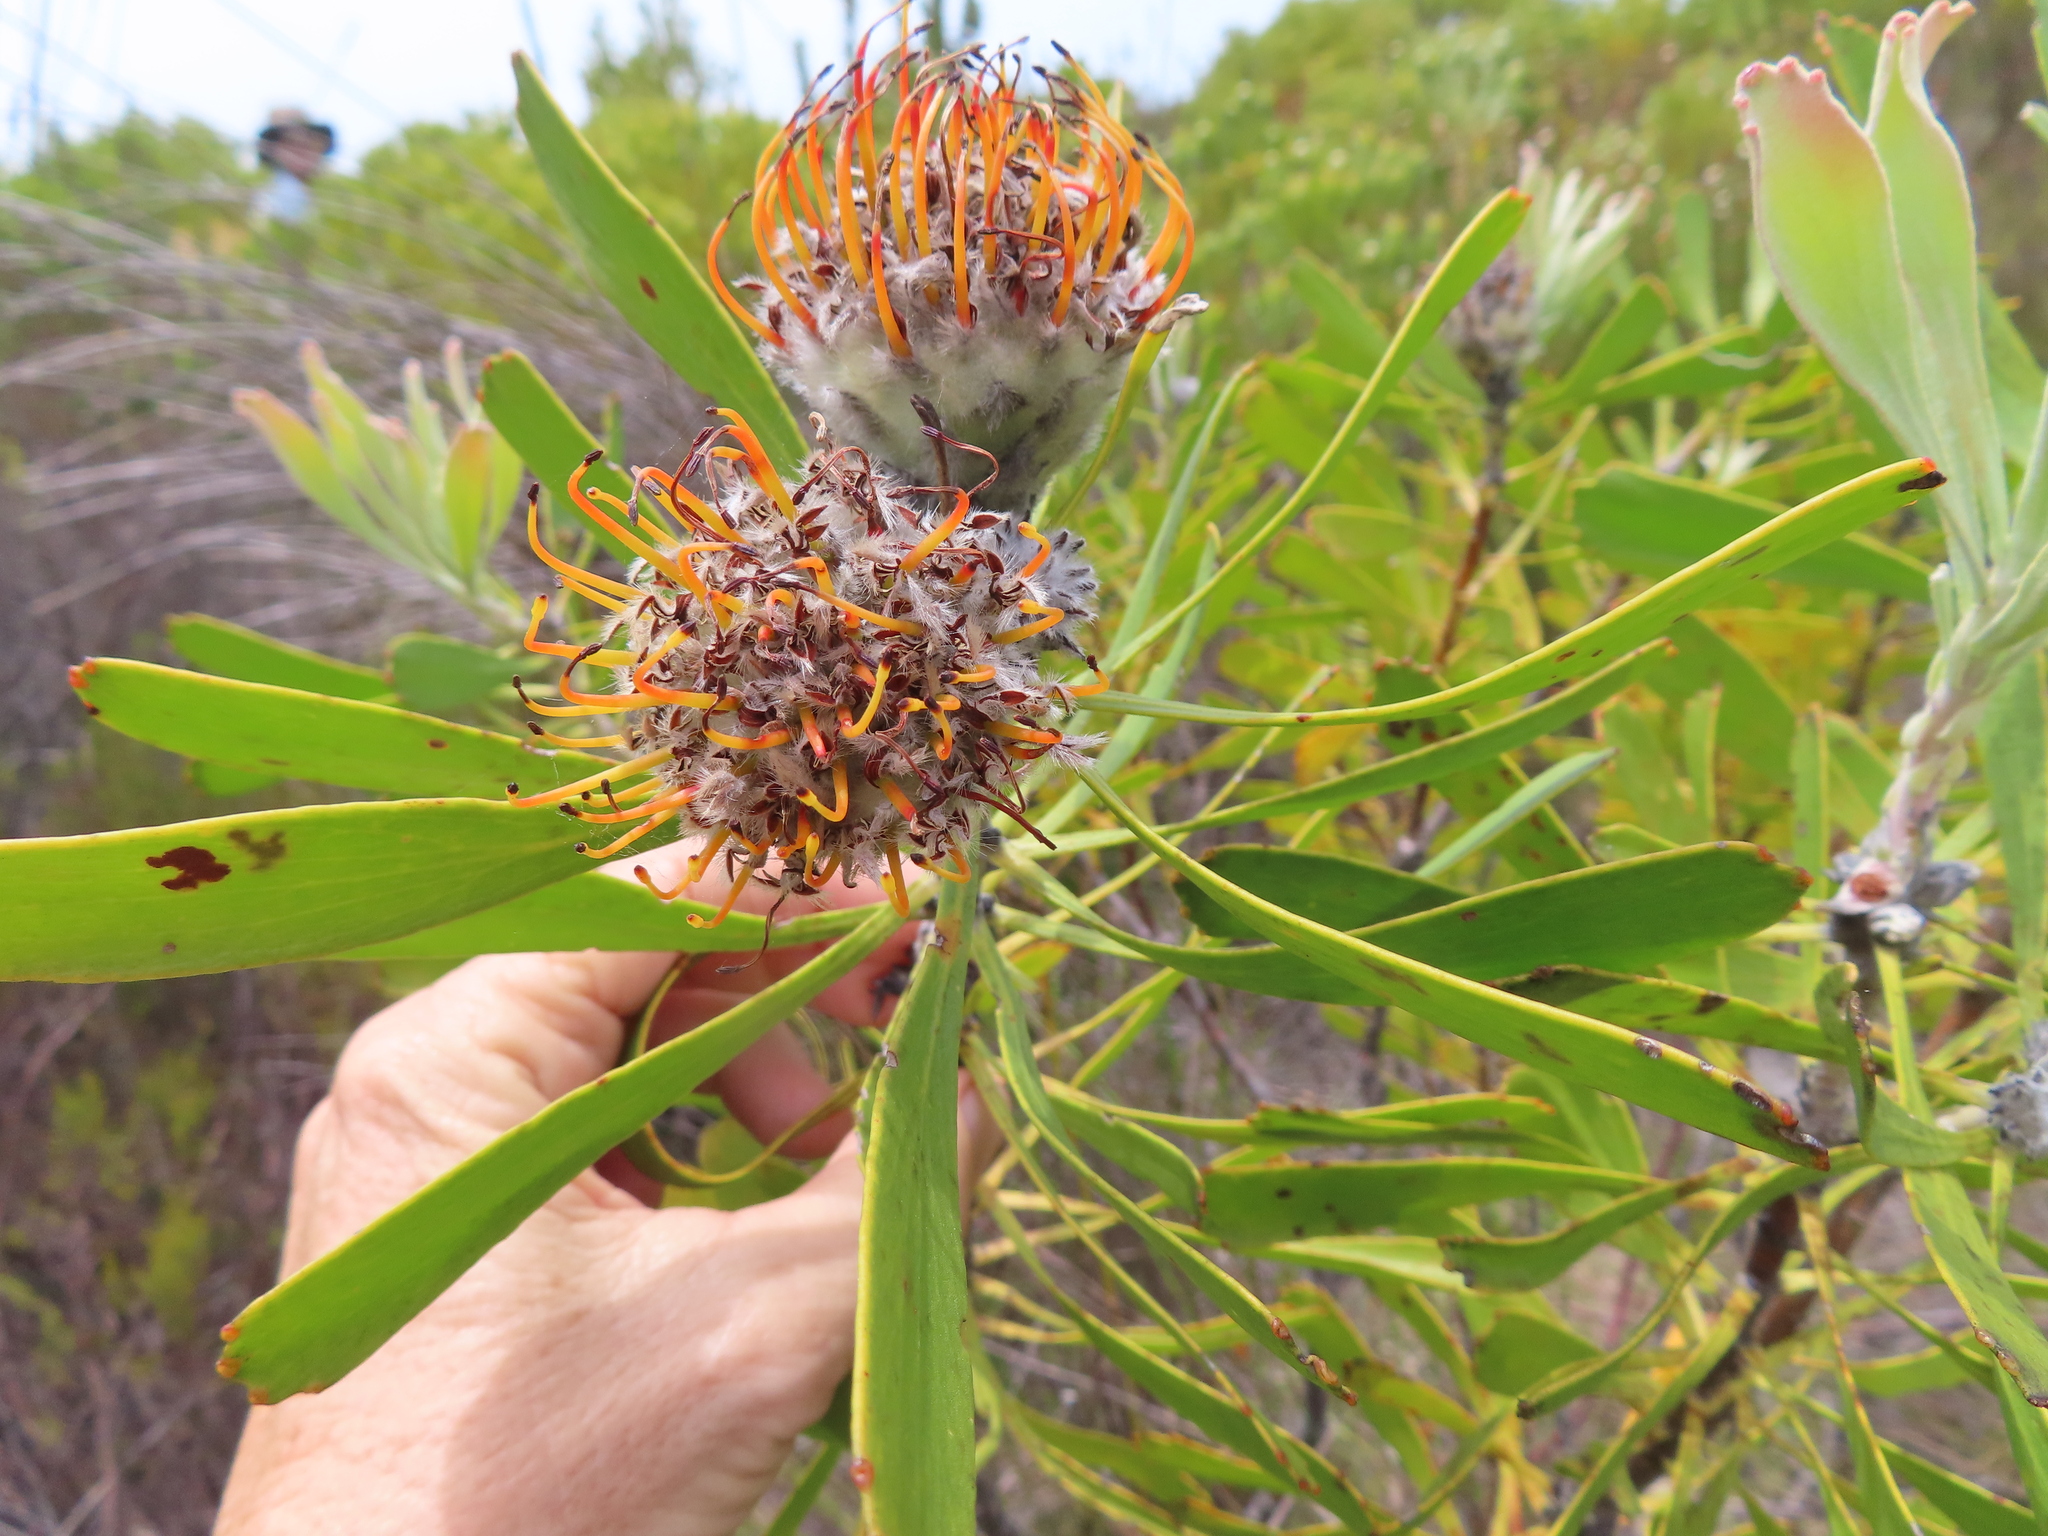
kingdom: Plantae
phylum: Tracheophyta
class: Magnoliopsida
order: Proteales
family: Proteaceae
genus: Leucospermum
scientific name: Leucospermum truncatum
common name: Limestone pincushion
